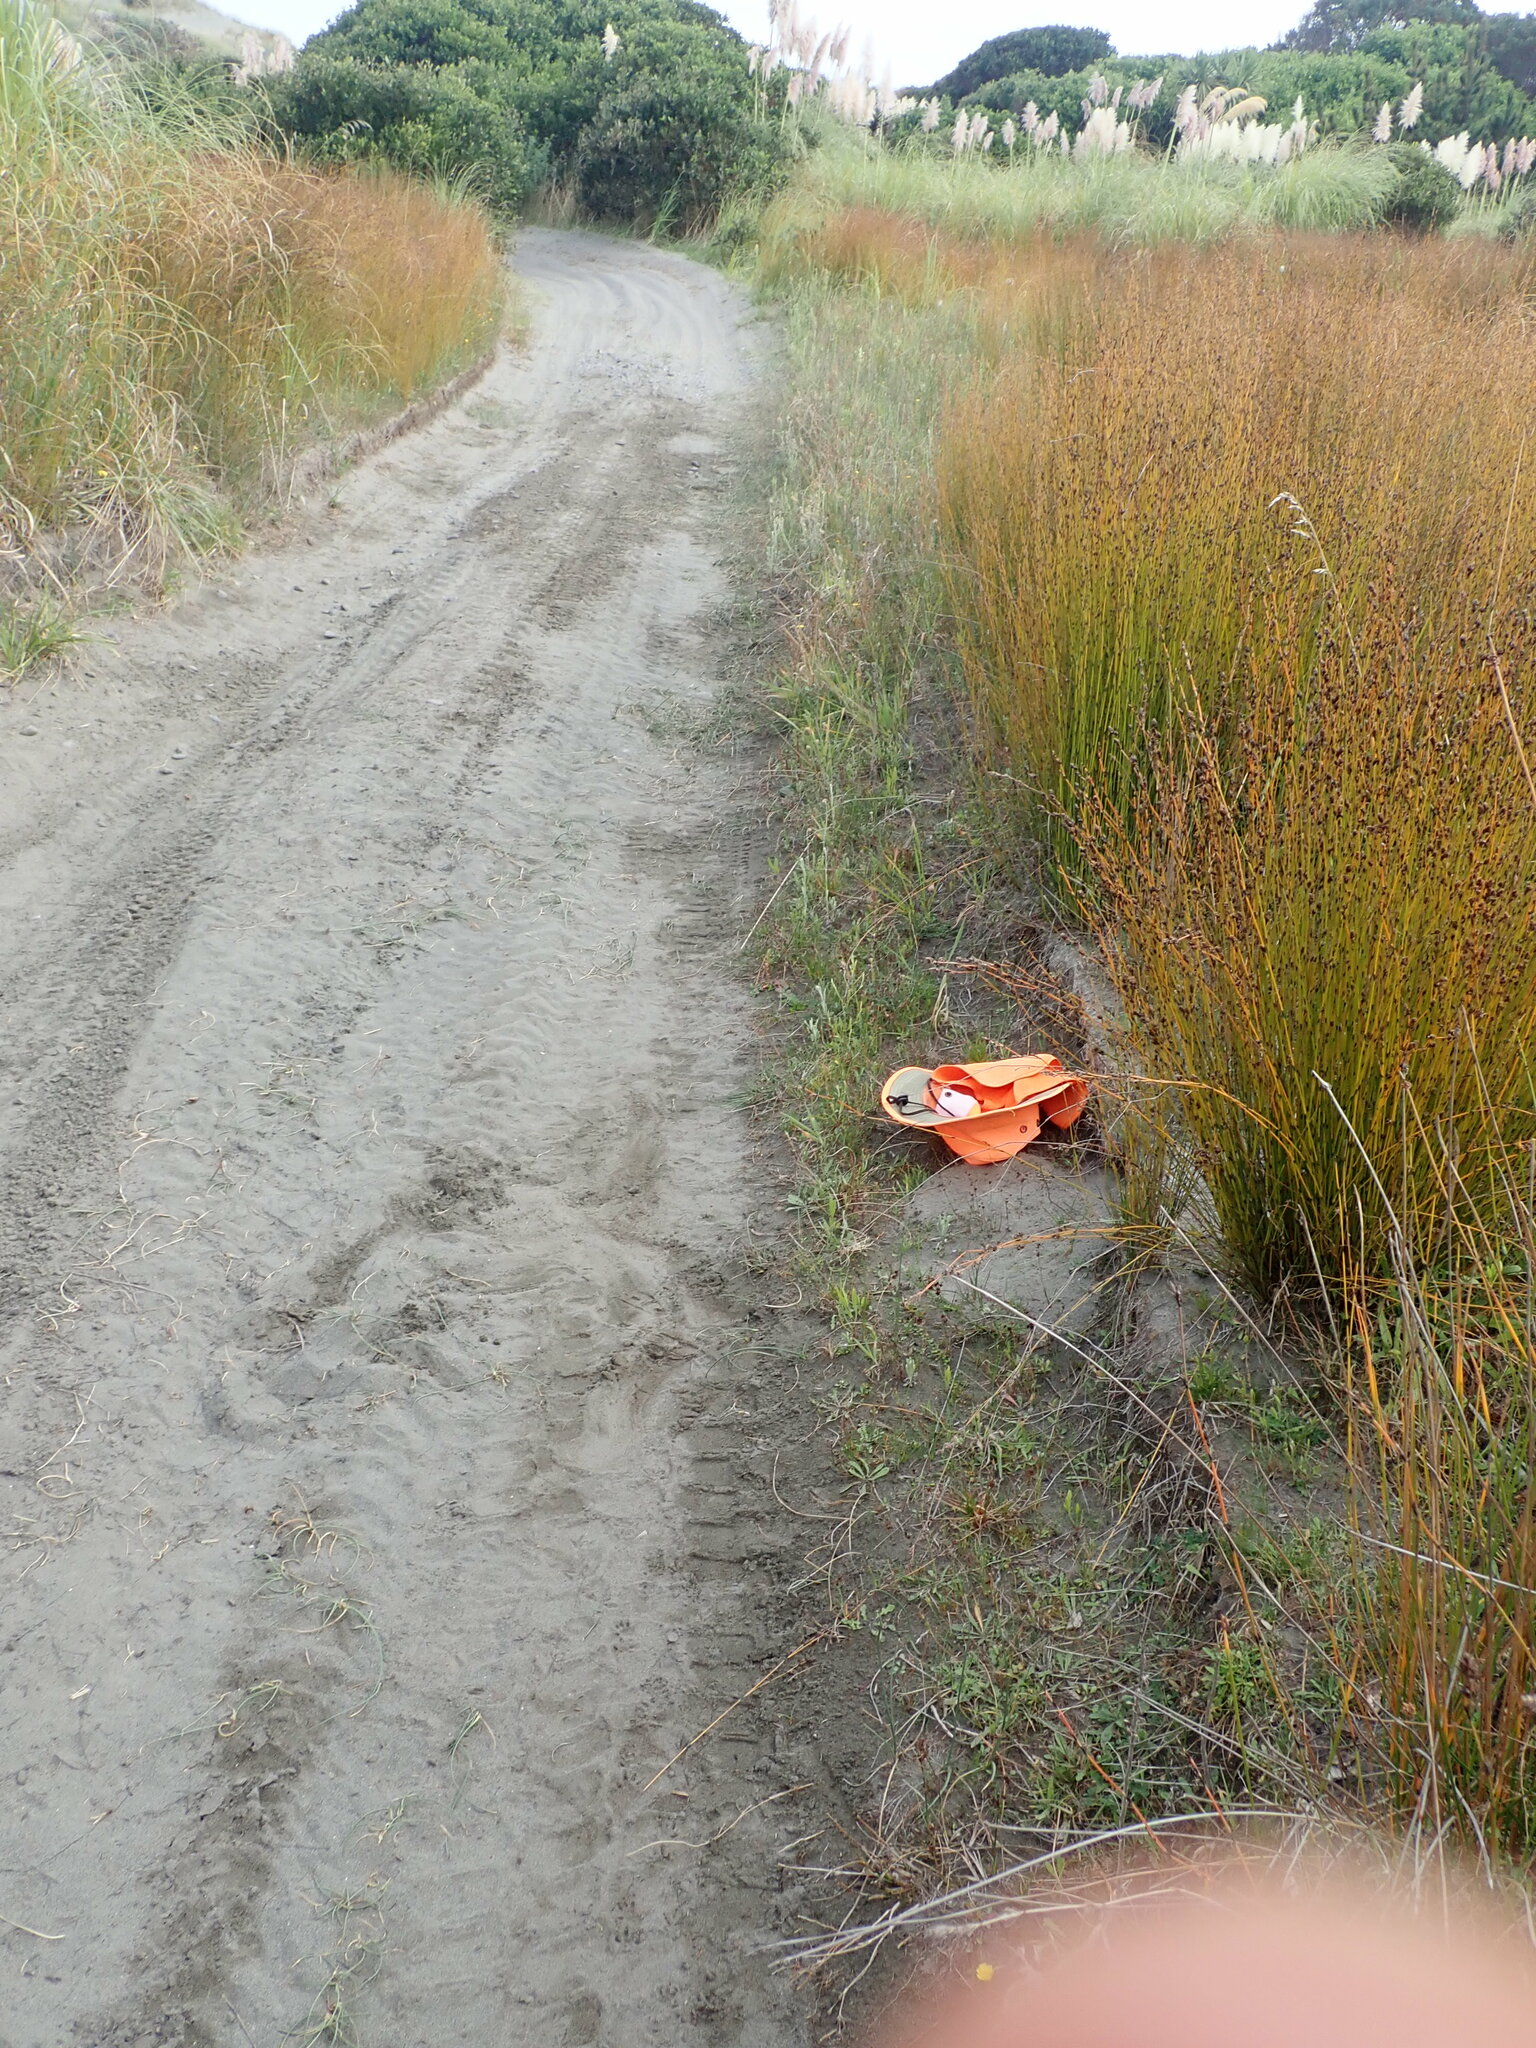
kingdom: Plantae
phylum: Tracheophyta
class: Liliopsida
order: Poales
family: Juncaceae
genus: Juncus
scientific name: Juncus articulatus
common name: Jointed rush
